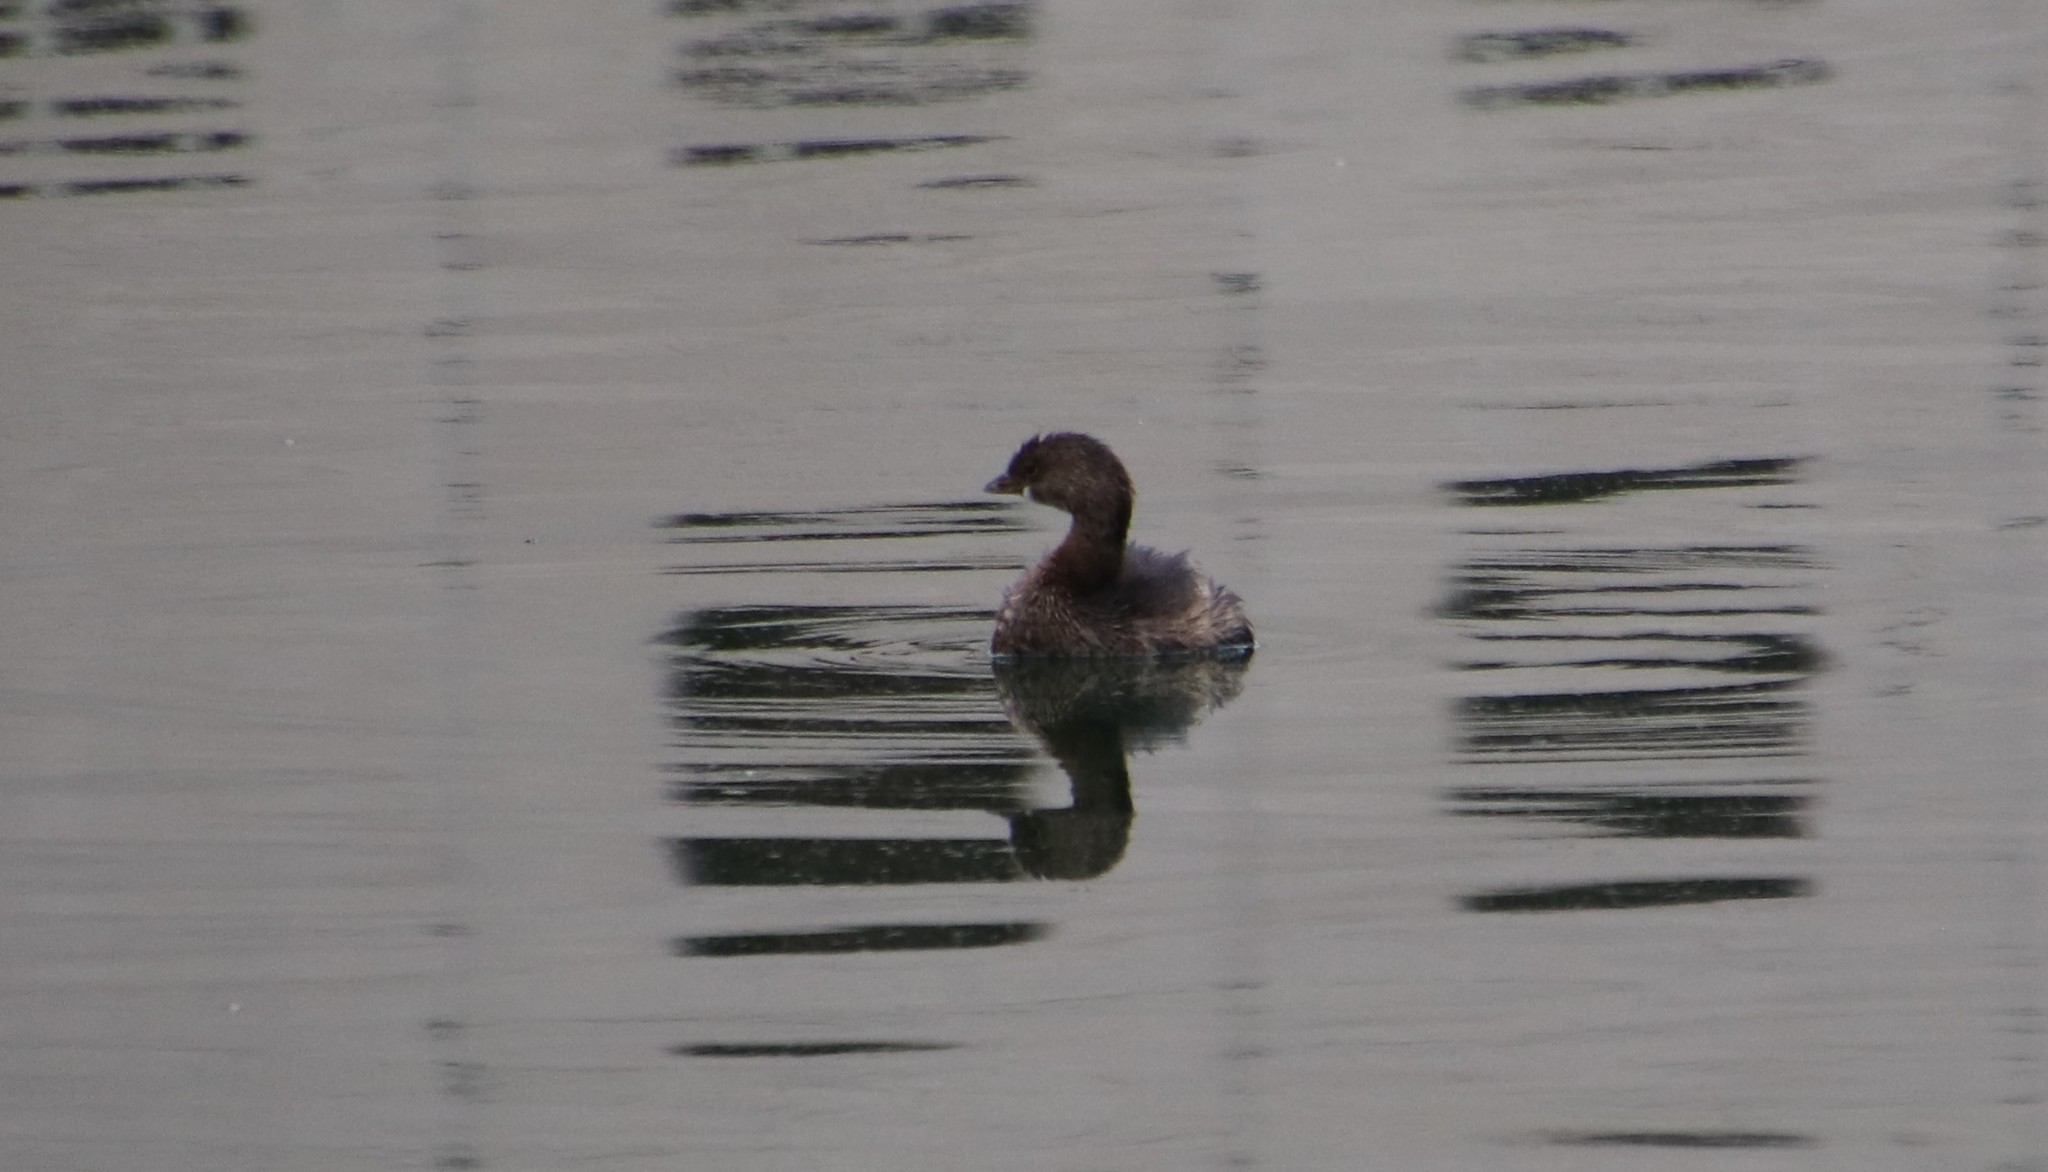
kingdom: Animalia
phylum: Chordata
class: Aves
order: Podicipediformes
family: Podicipedidae
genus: Podilymbus
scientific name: Podilymbus podiceps
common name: Pied-billed grebe
